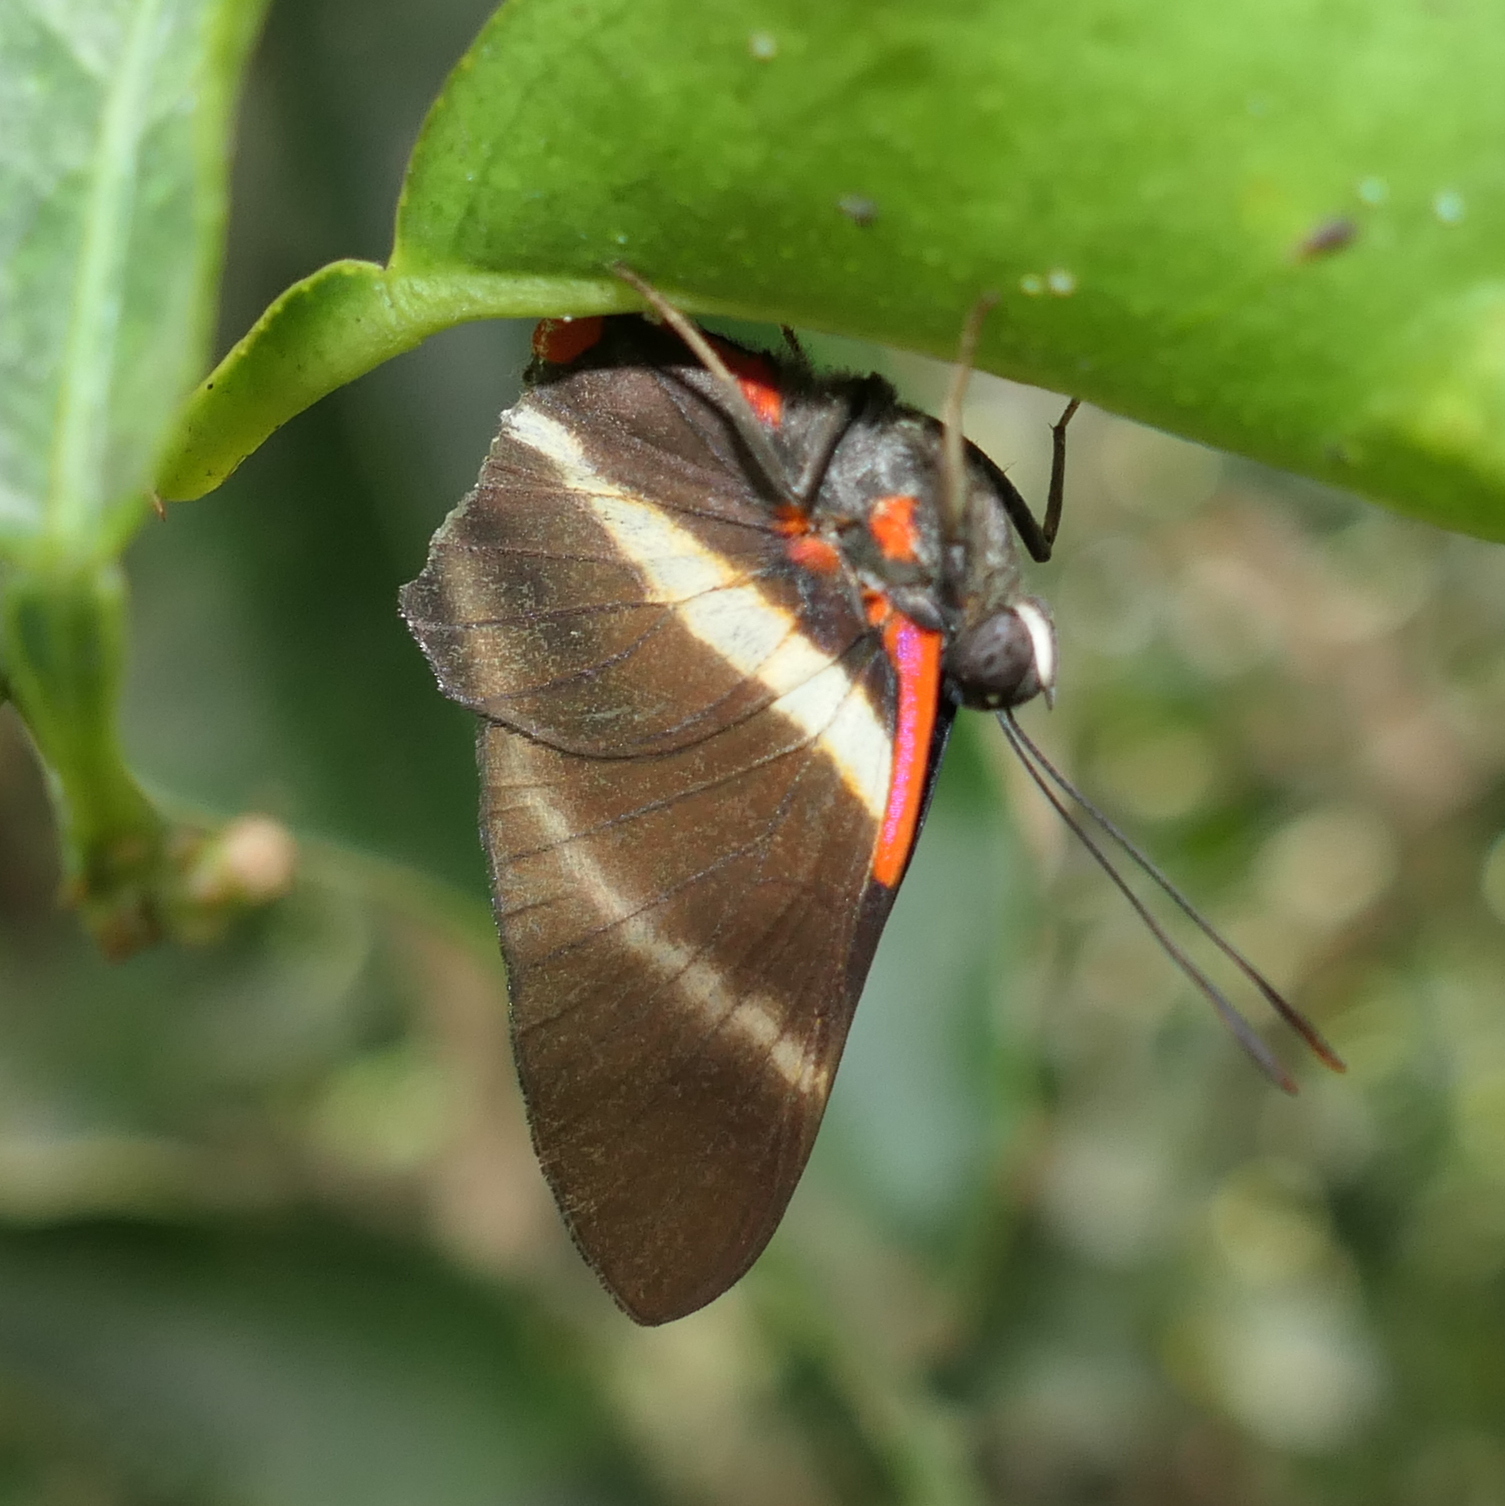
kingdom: Animalia
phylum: Arthropoda
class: Insecta
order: Lepidoptera
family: Riodinidae
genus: Rhetus
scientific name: Rhetus periander
